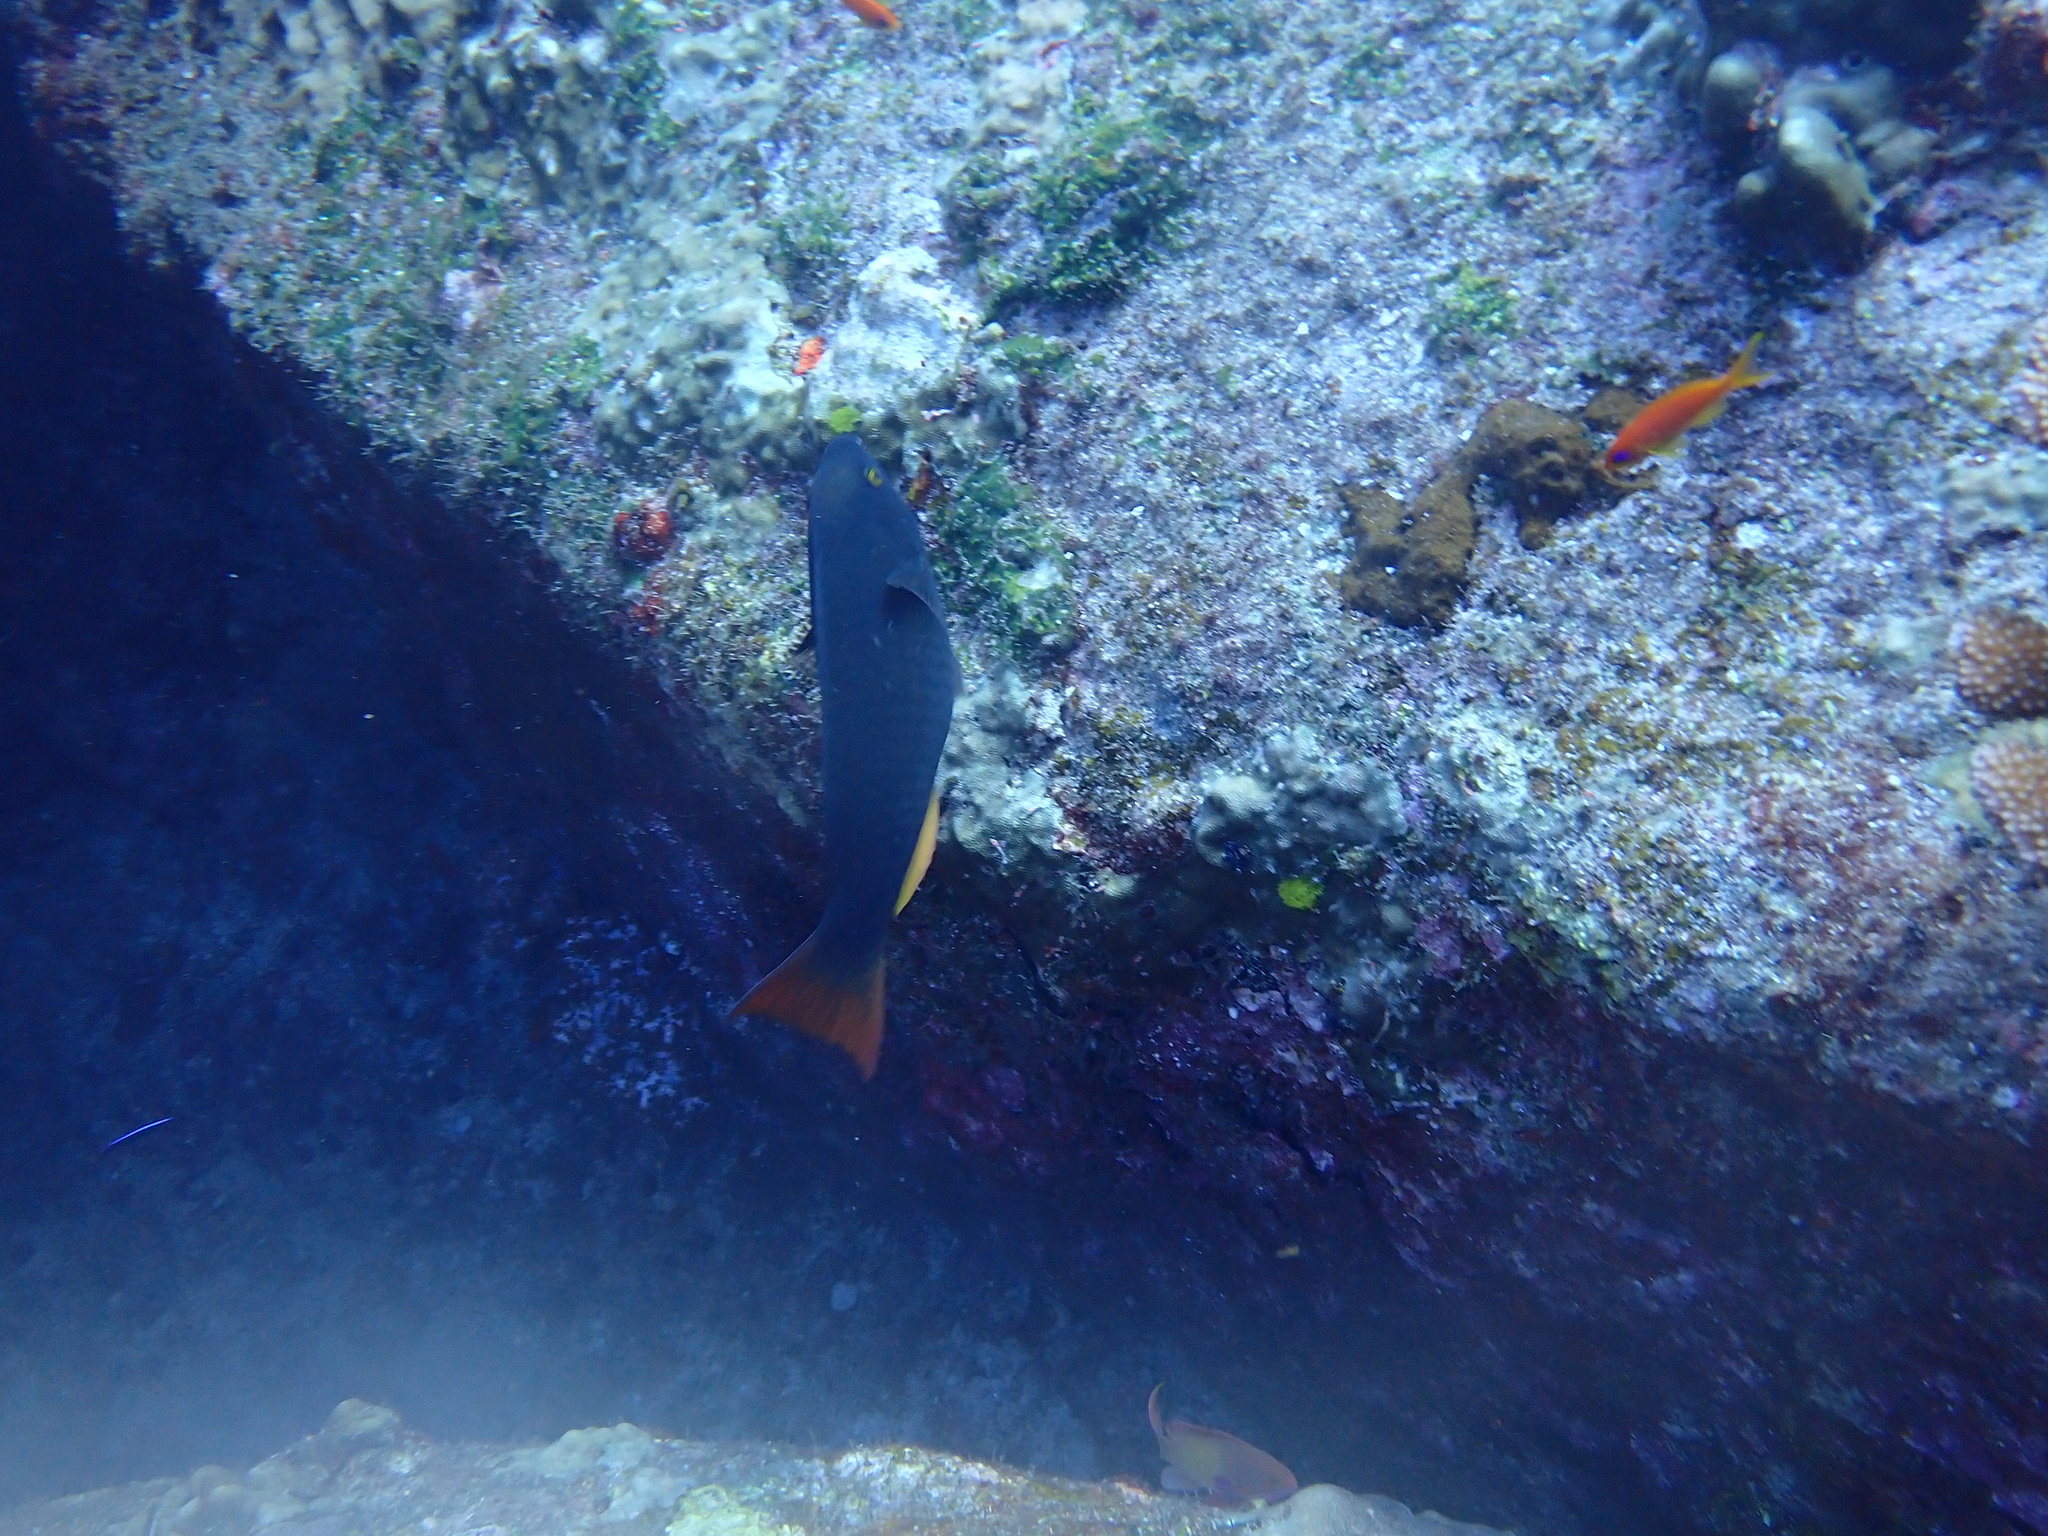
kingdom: Animalia
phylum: Chordata
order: Perciformes
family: Scaridae
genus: Scarus
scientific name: Scarus tricolor
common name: Tricolour parrotfish
